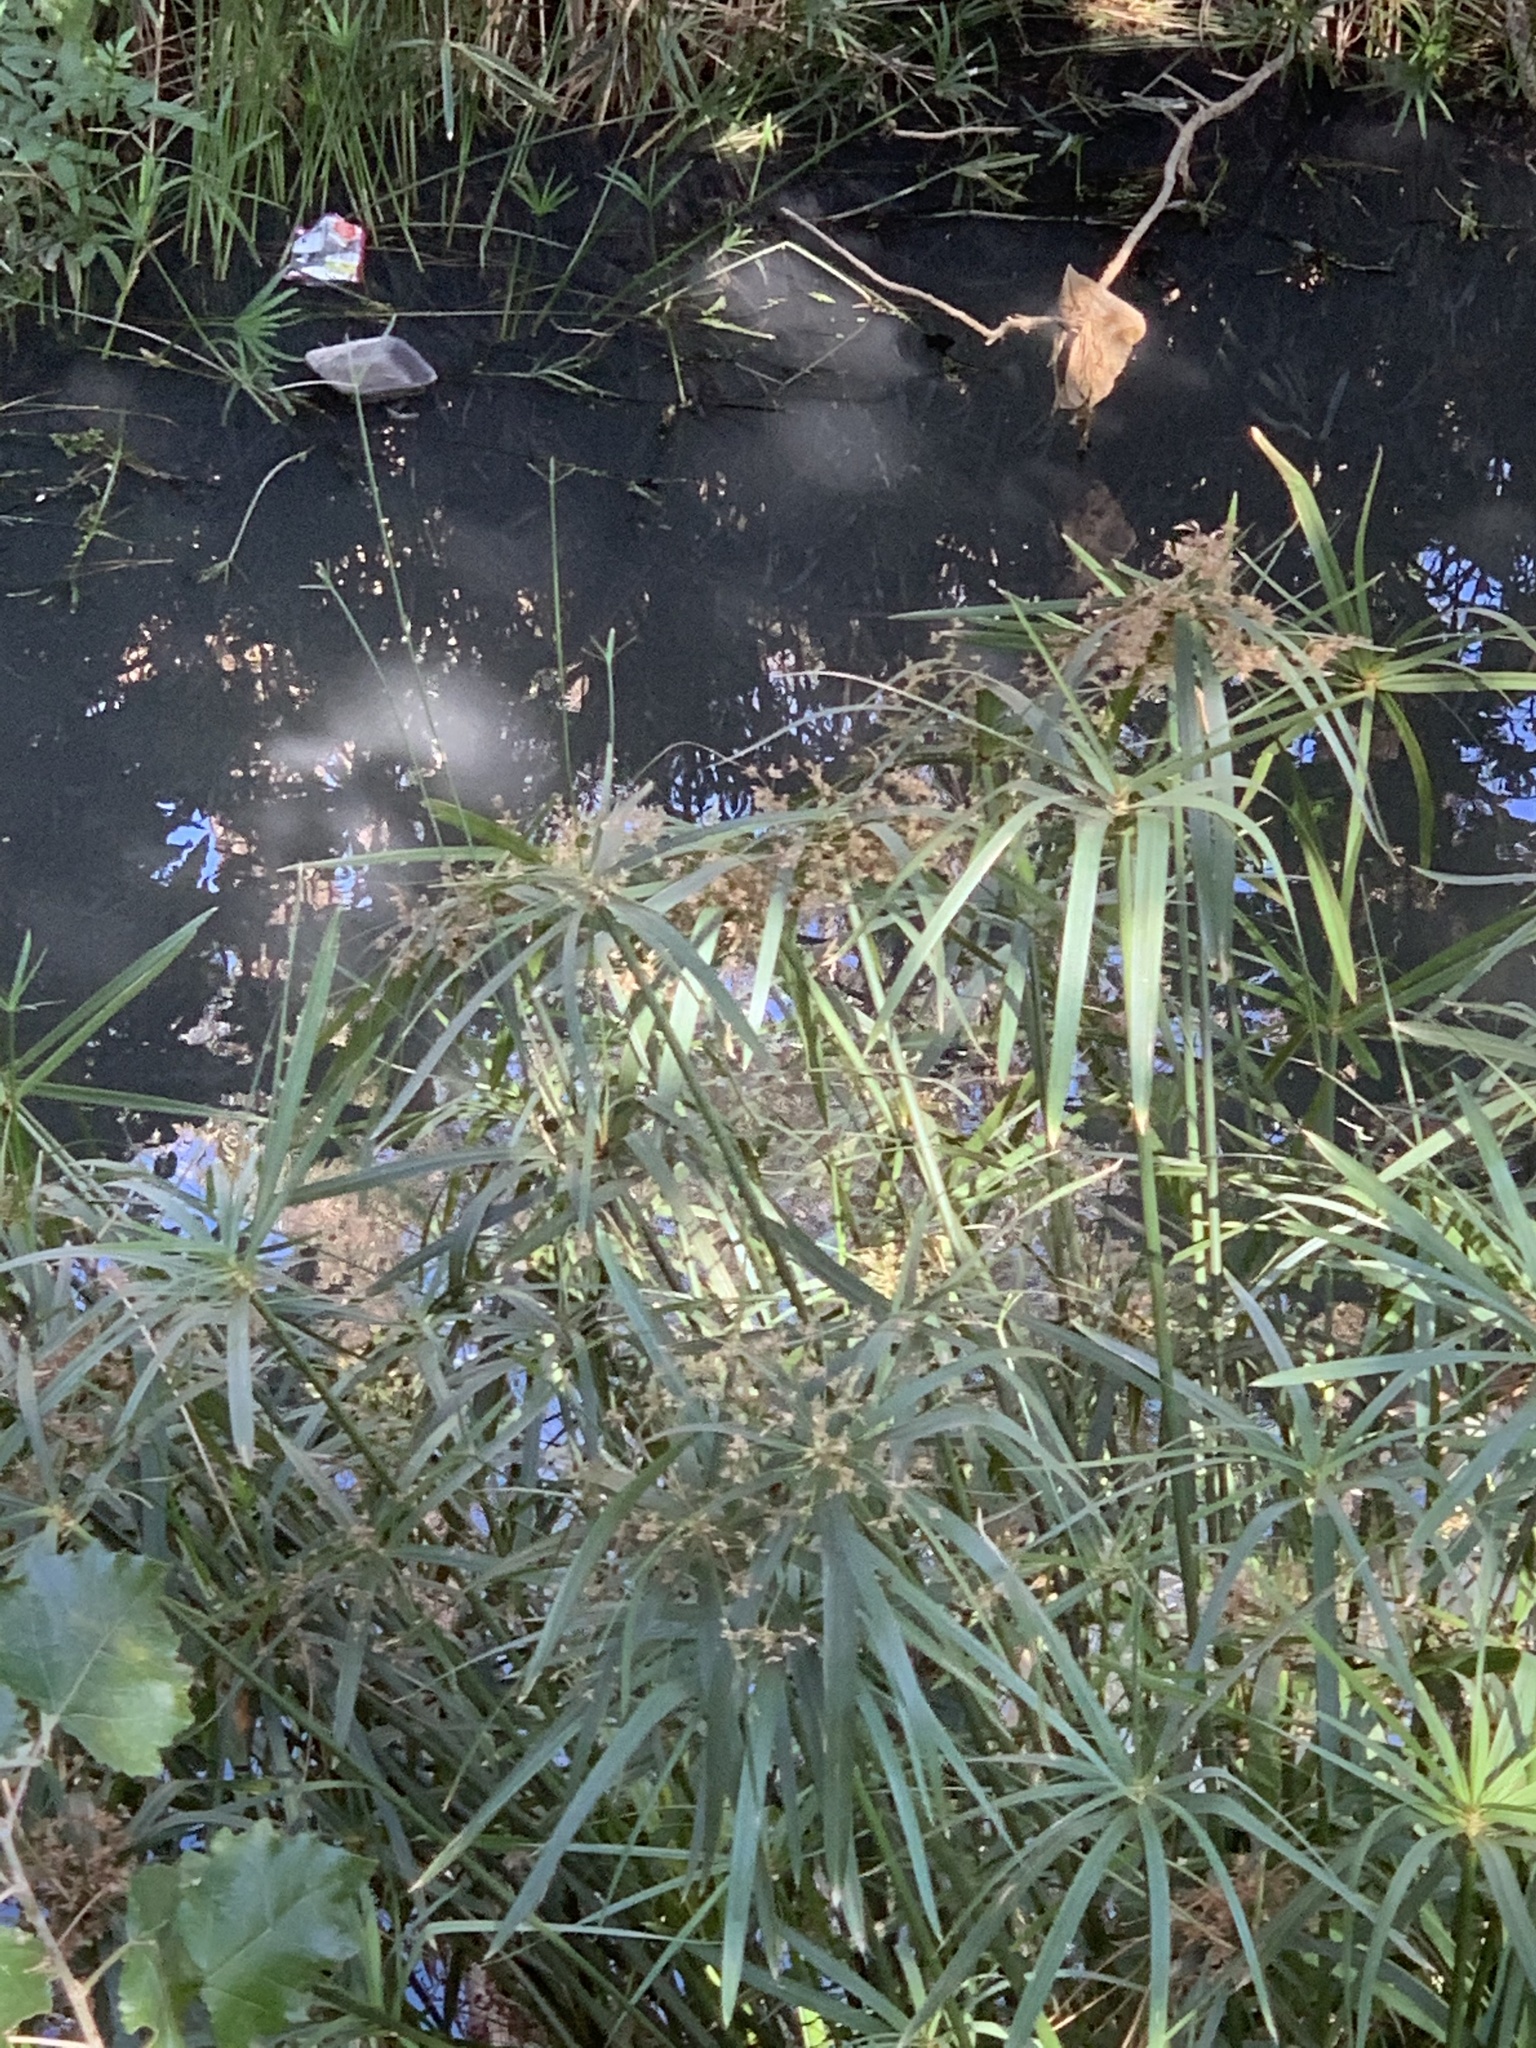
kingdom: Plantae
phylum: Tracheophyta
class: Liliopsida
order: Poales
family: Cyperaceae
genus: Cyperus
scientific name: Cyperus textilis
